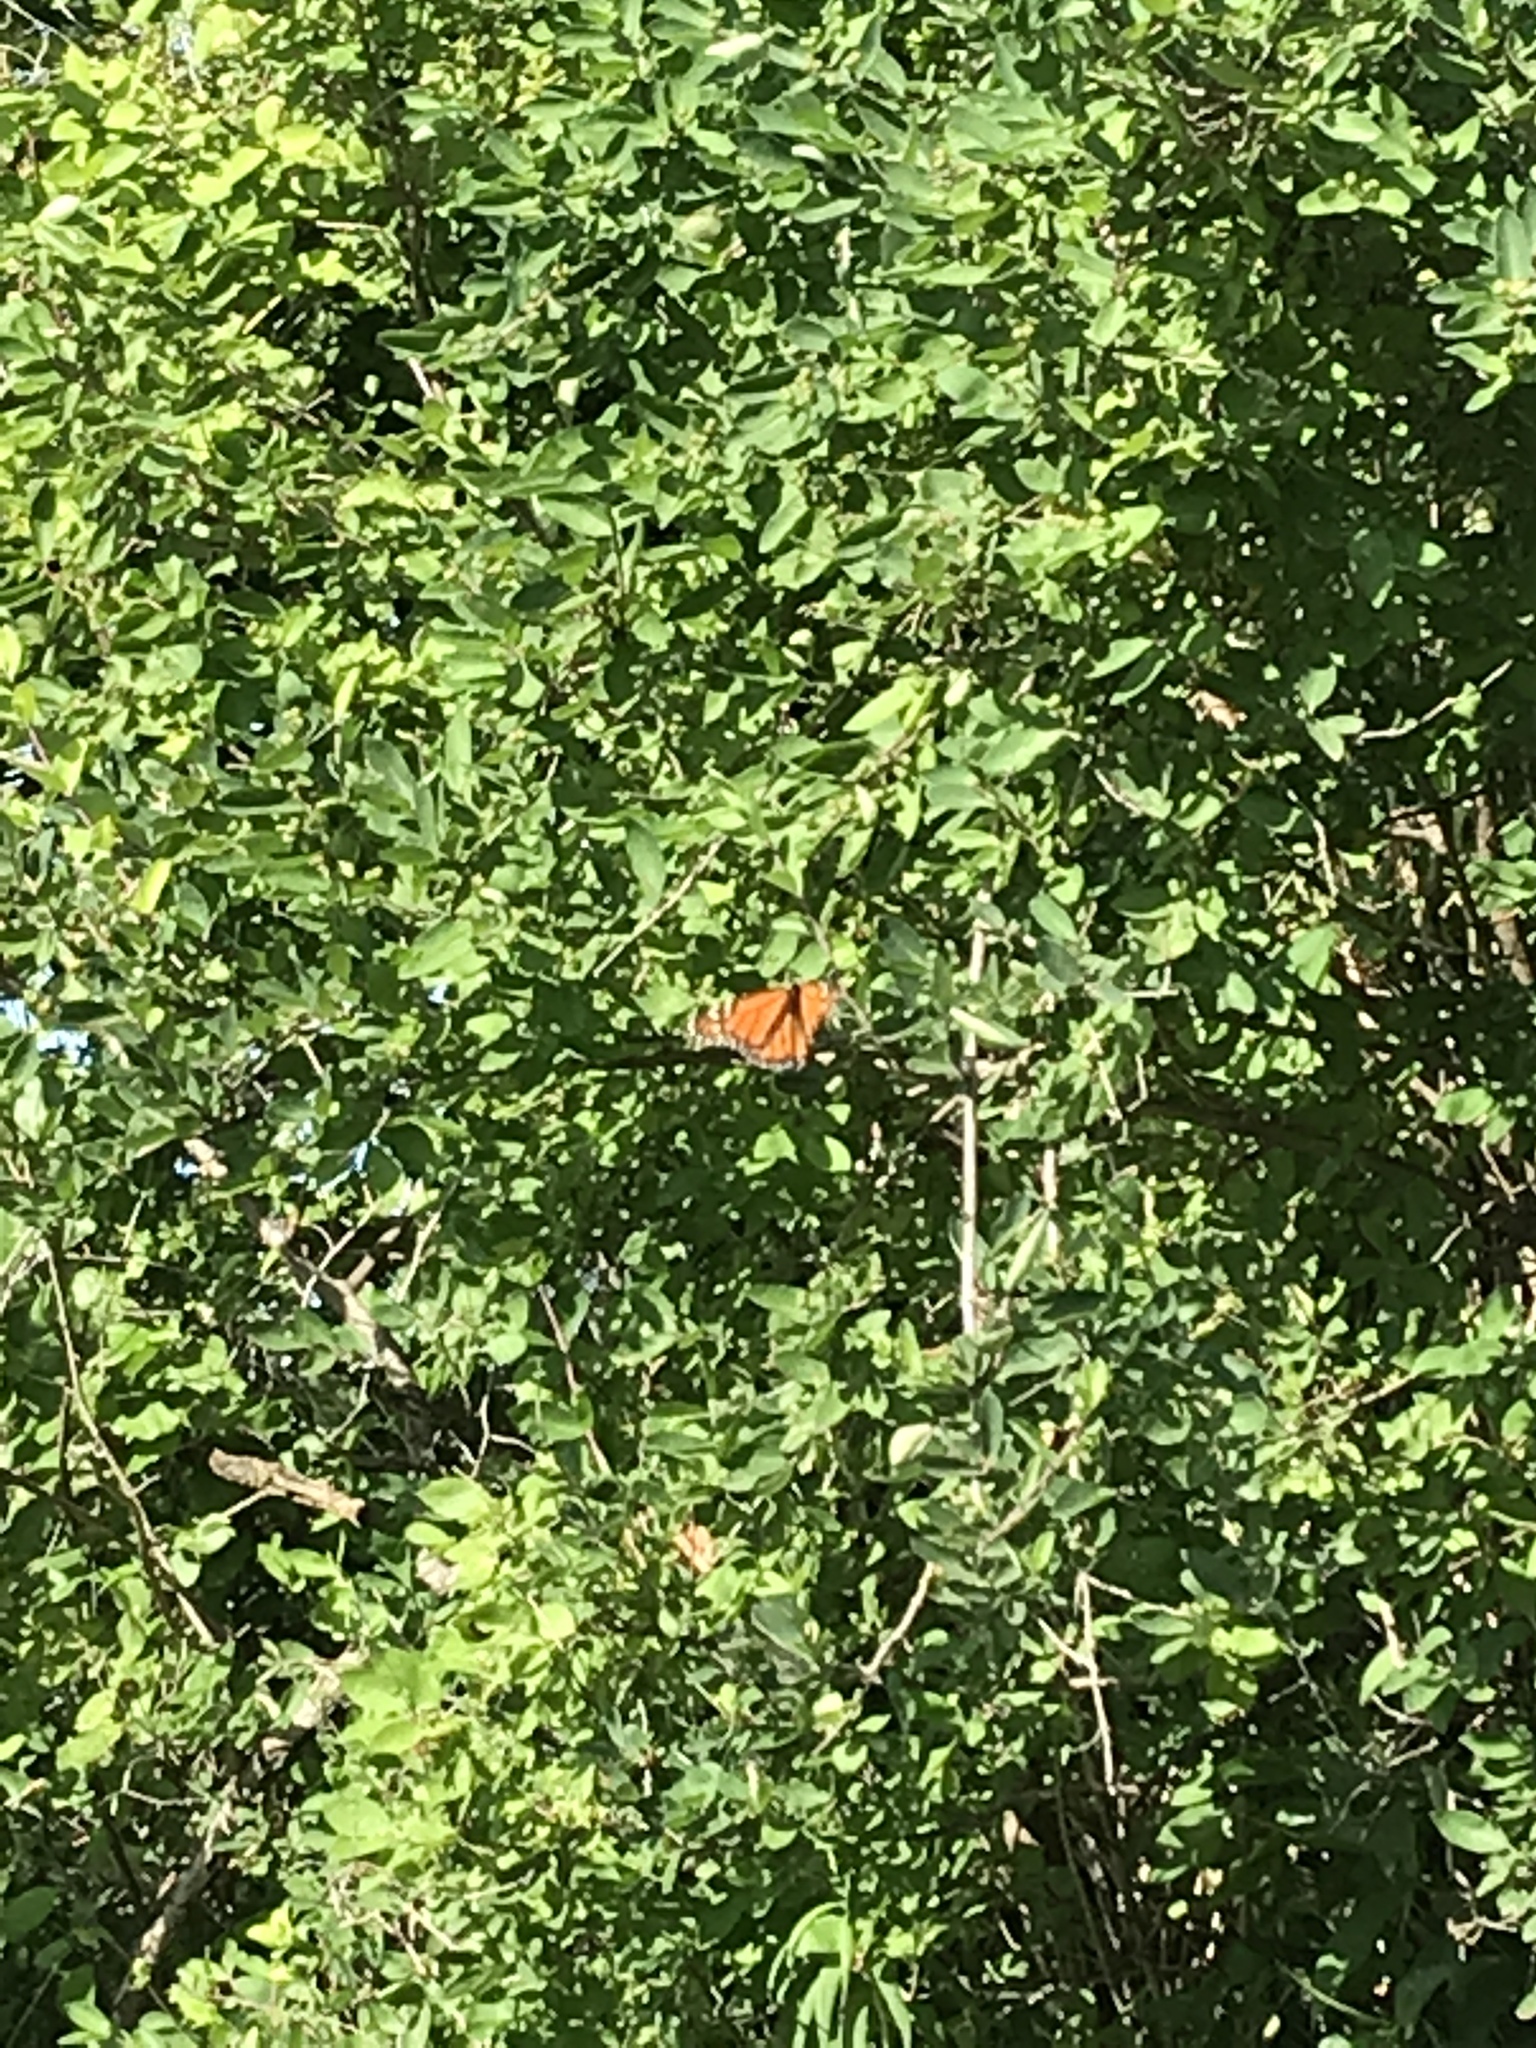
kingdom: Animalia
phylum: Arthropoda
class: Insecta
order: Lepidoptera
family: Nymphalidae
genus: Danaus
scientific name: Danaus plexippus
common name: Monarch
